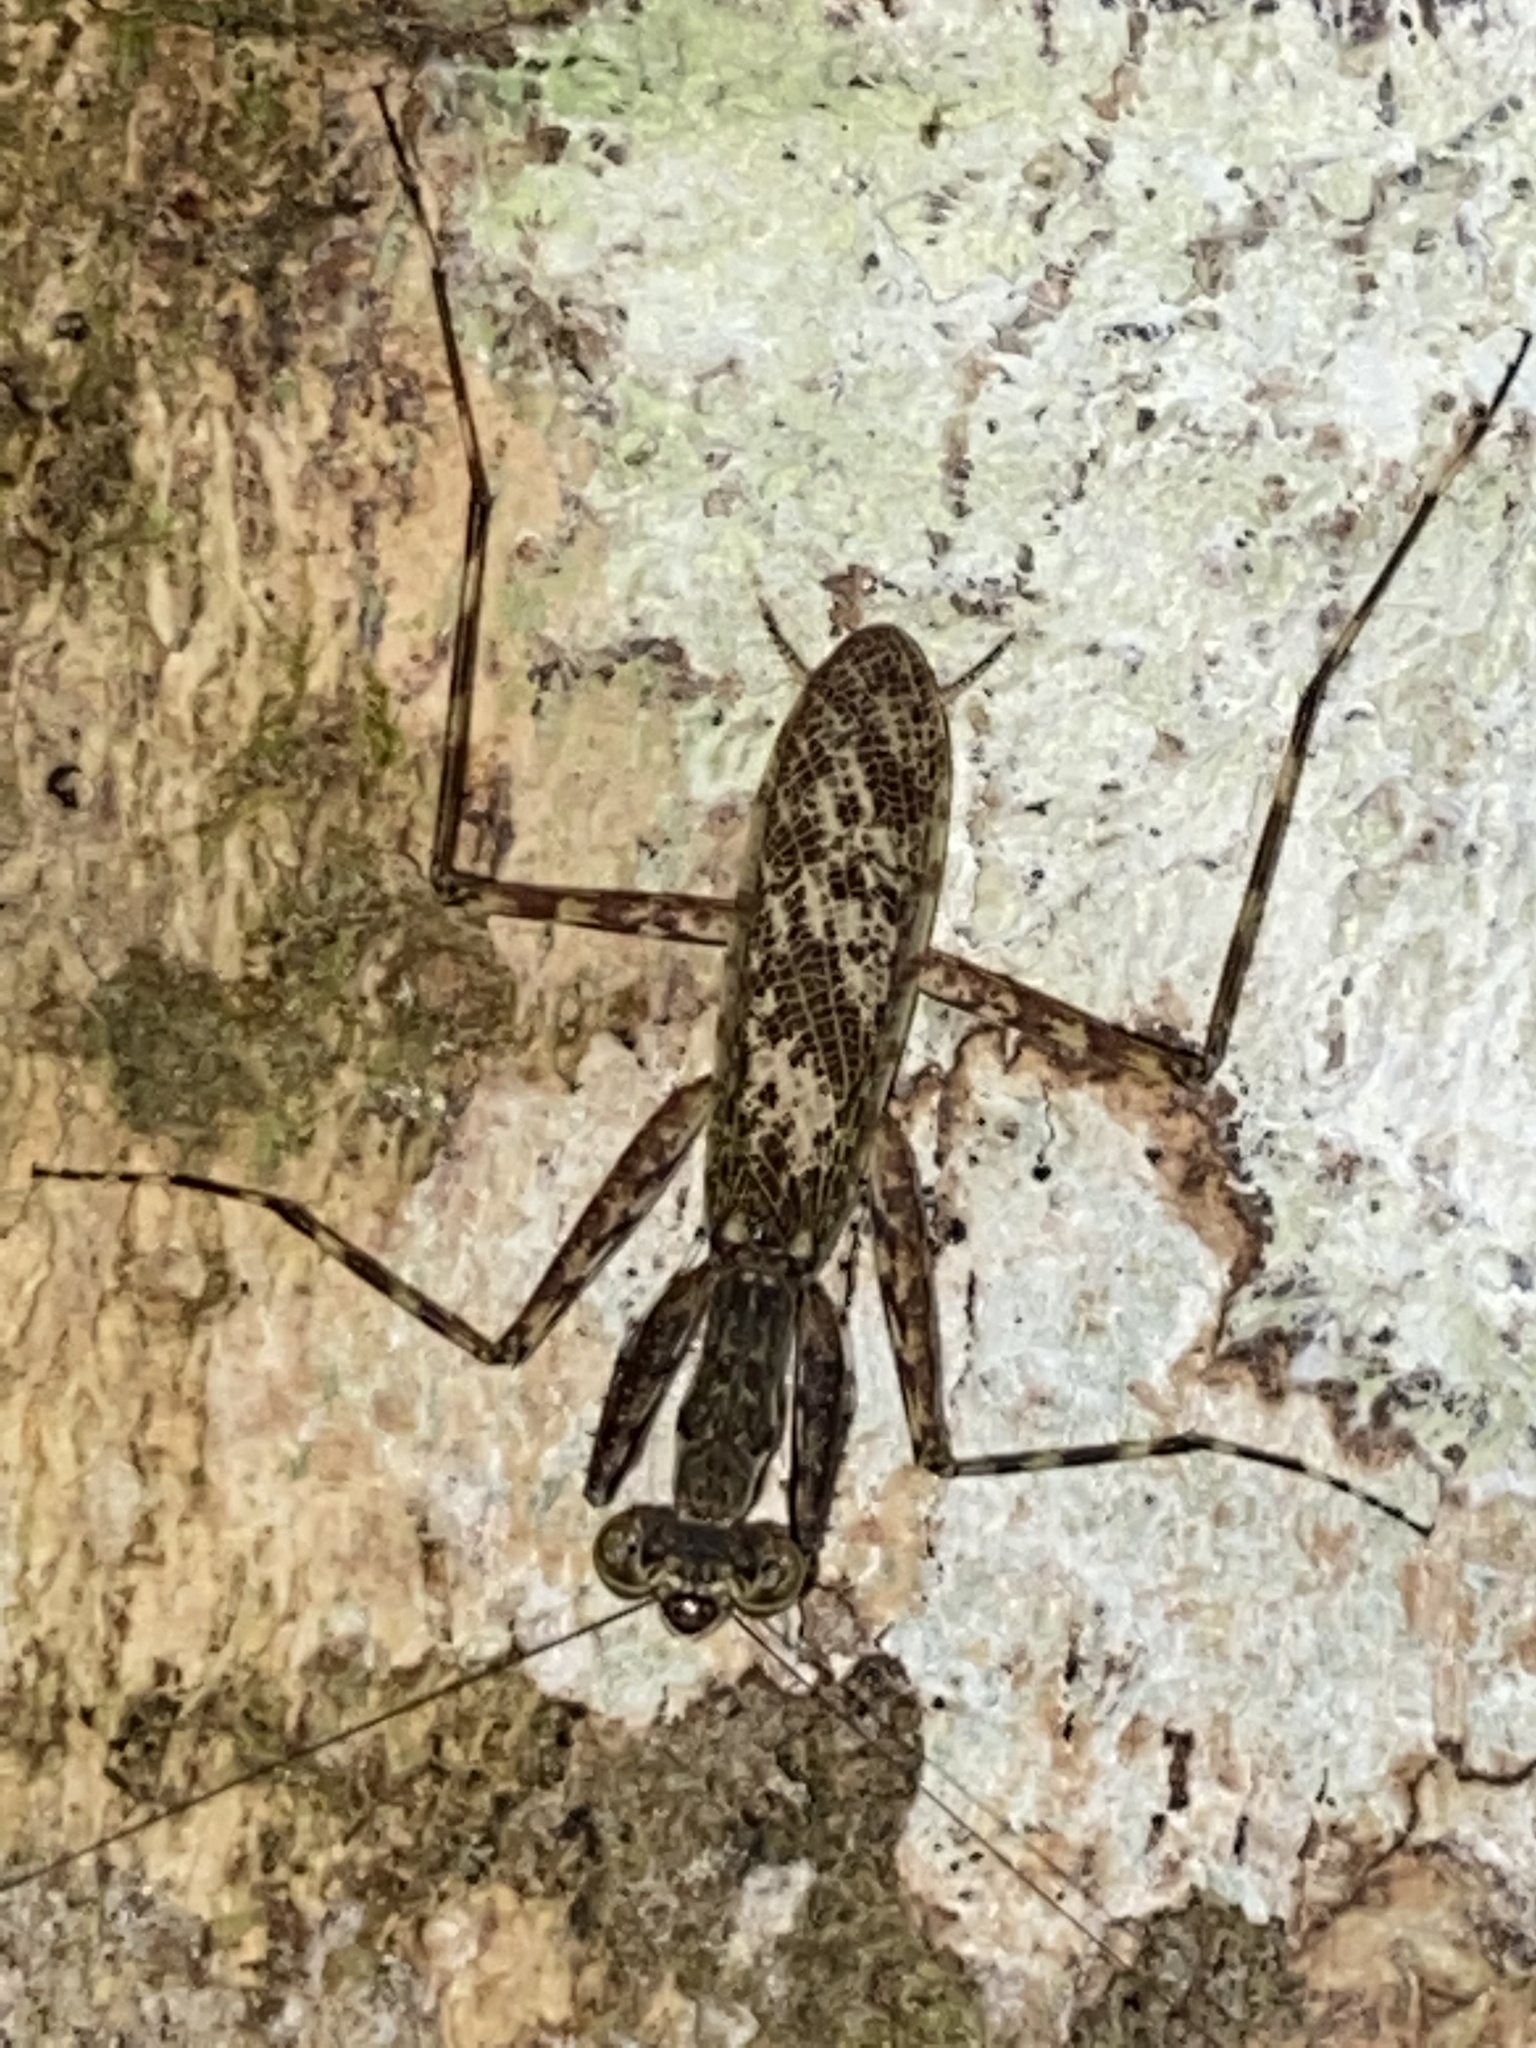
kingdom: Animalia
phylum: Arthropoda
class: Insecta
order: Mantodea
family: Liturgusidae
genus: Fuga
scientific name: Fuga grimaldii
